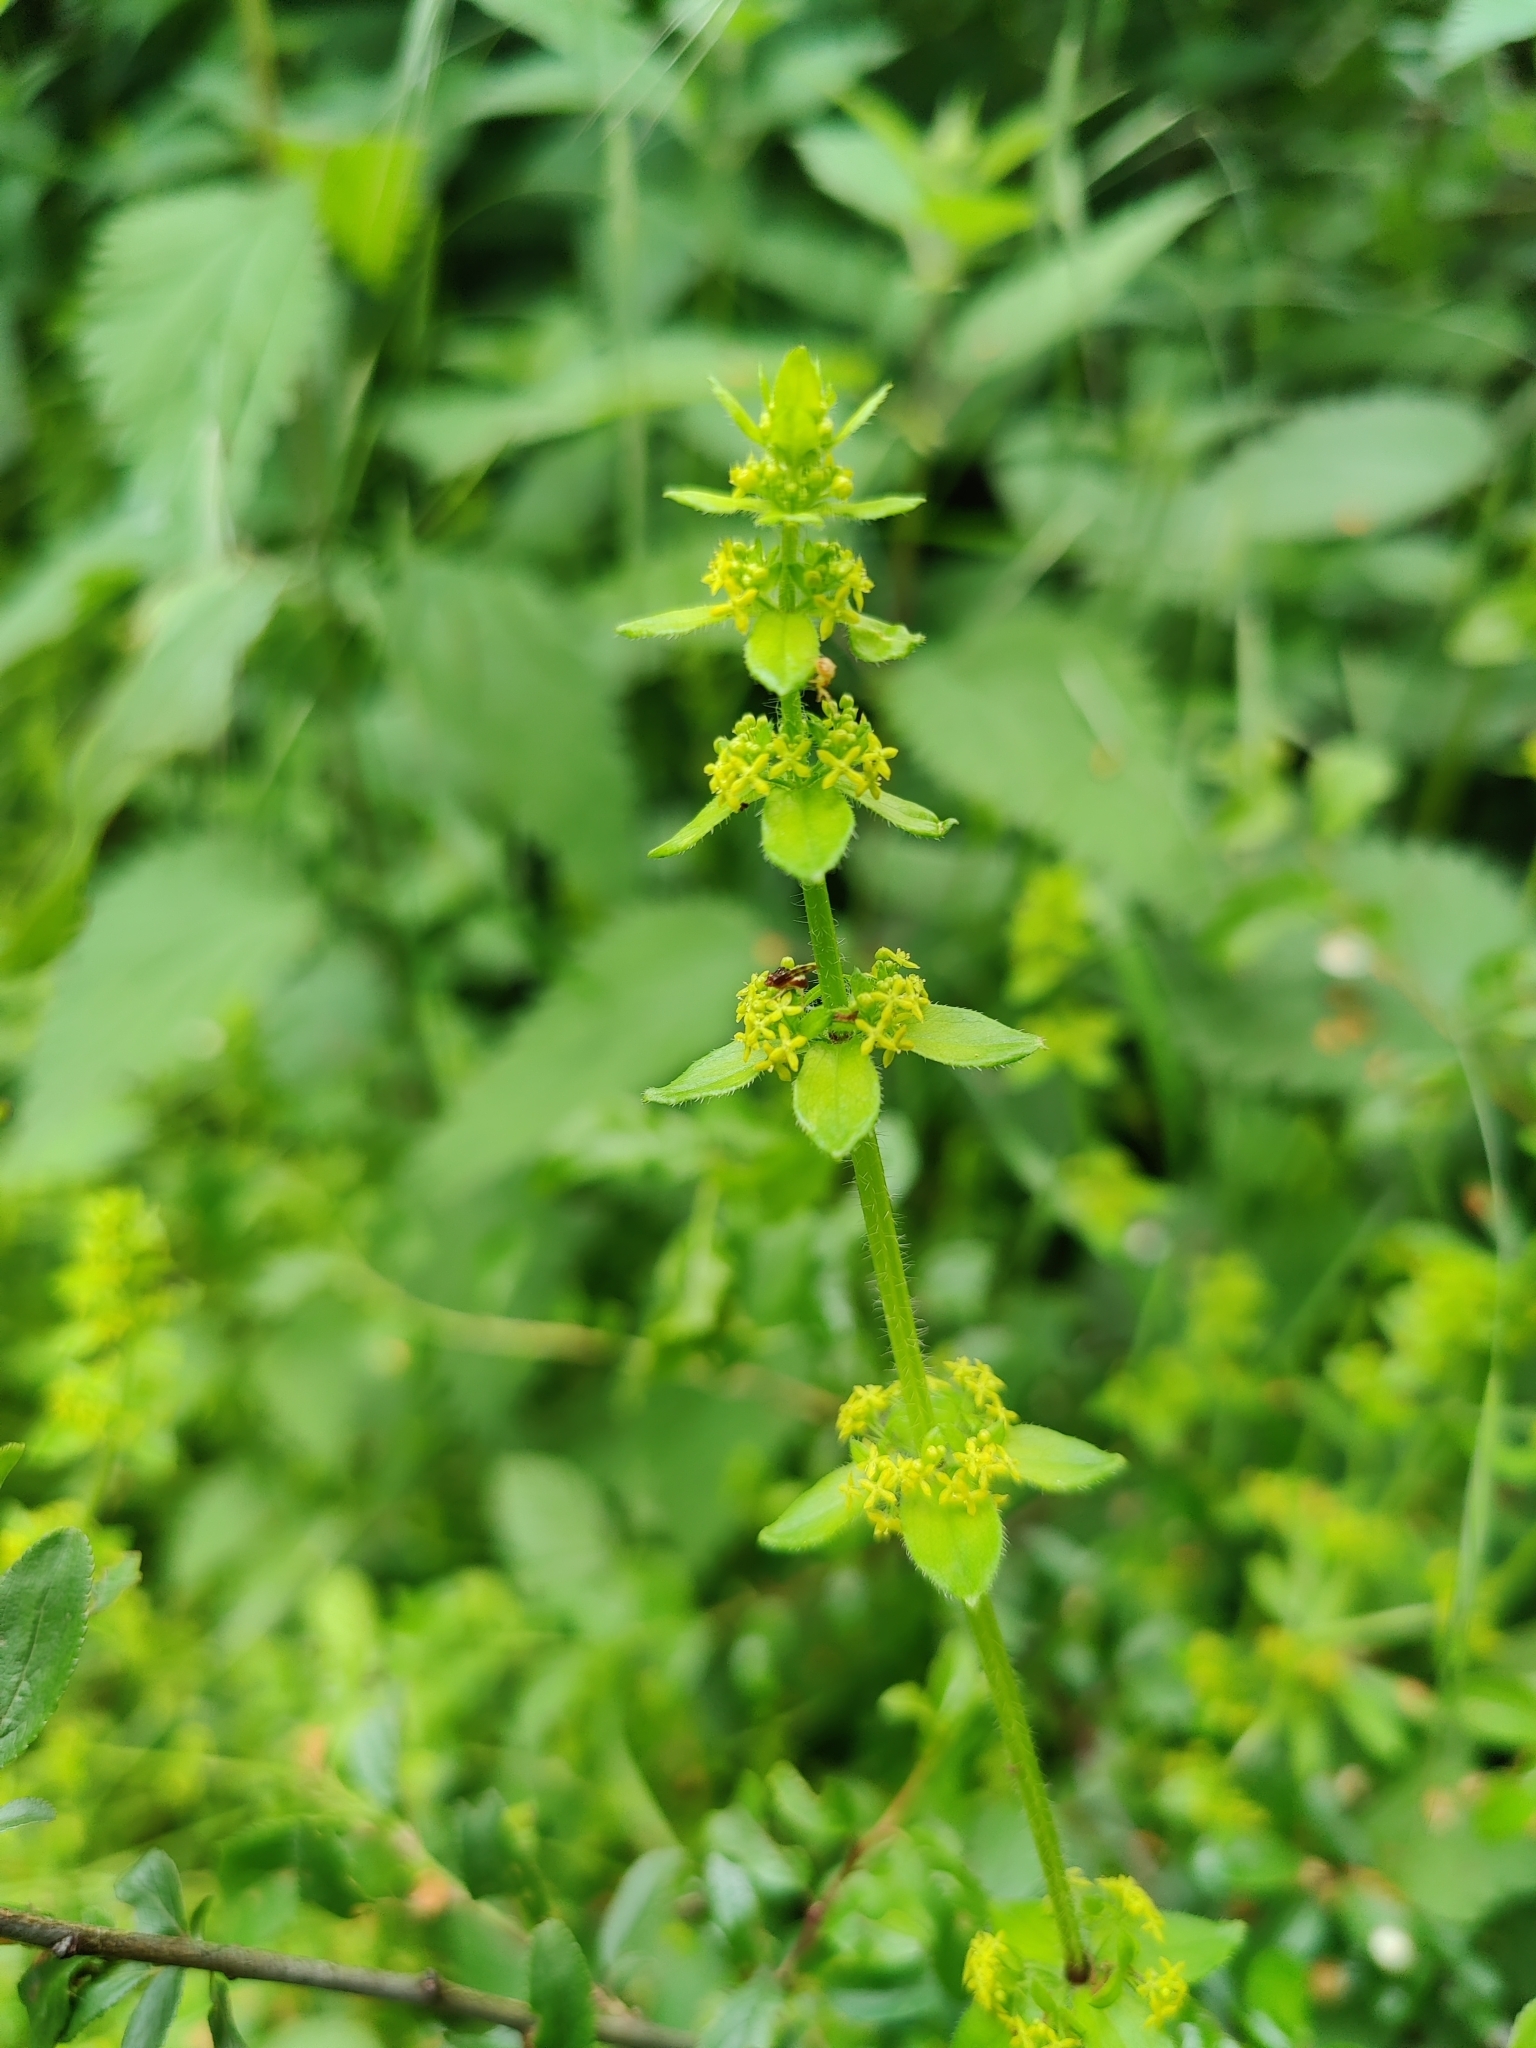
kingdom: Plantae
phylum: Tracheophyta
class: Magnoliopsida
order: Gentianales
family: Rubiaceae
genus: Cruciata
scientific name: Cruciata laevipes
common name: Crosswort
